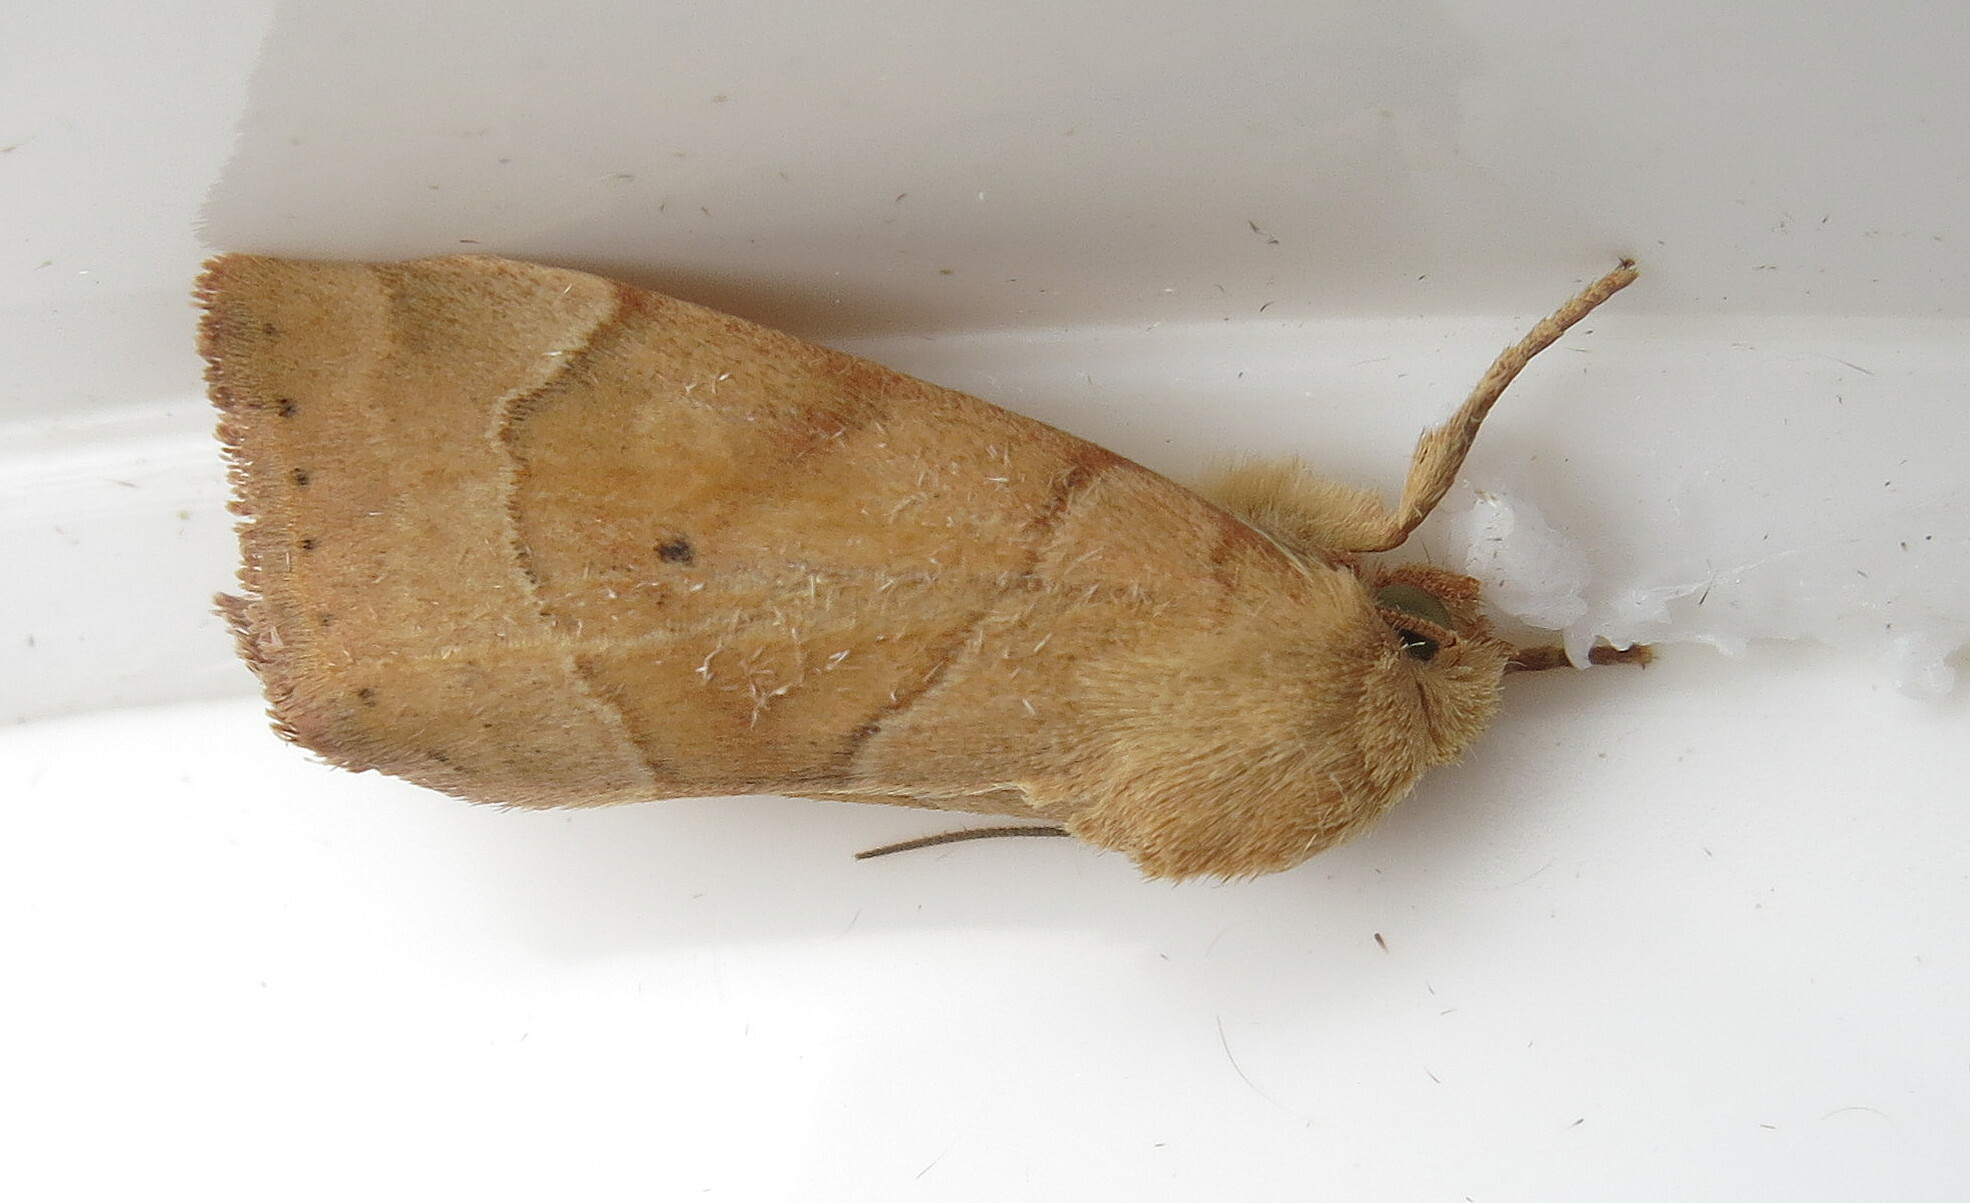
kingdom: Animalia
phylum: Arthropoda
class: Insecta
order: Lepidoptera
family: Noctuidae
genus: Cosmia
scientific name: Cosmia trapezina
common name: Dun-bar
